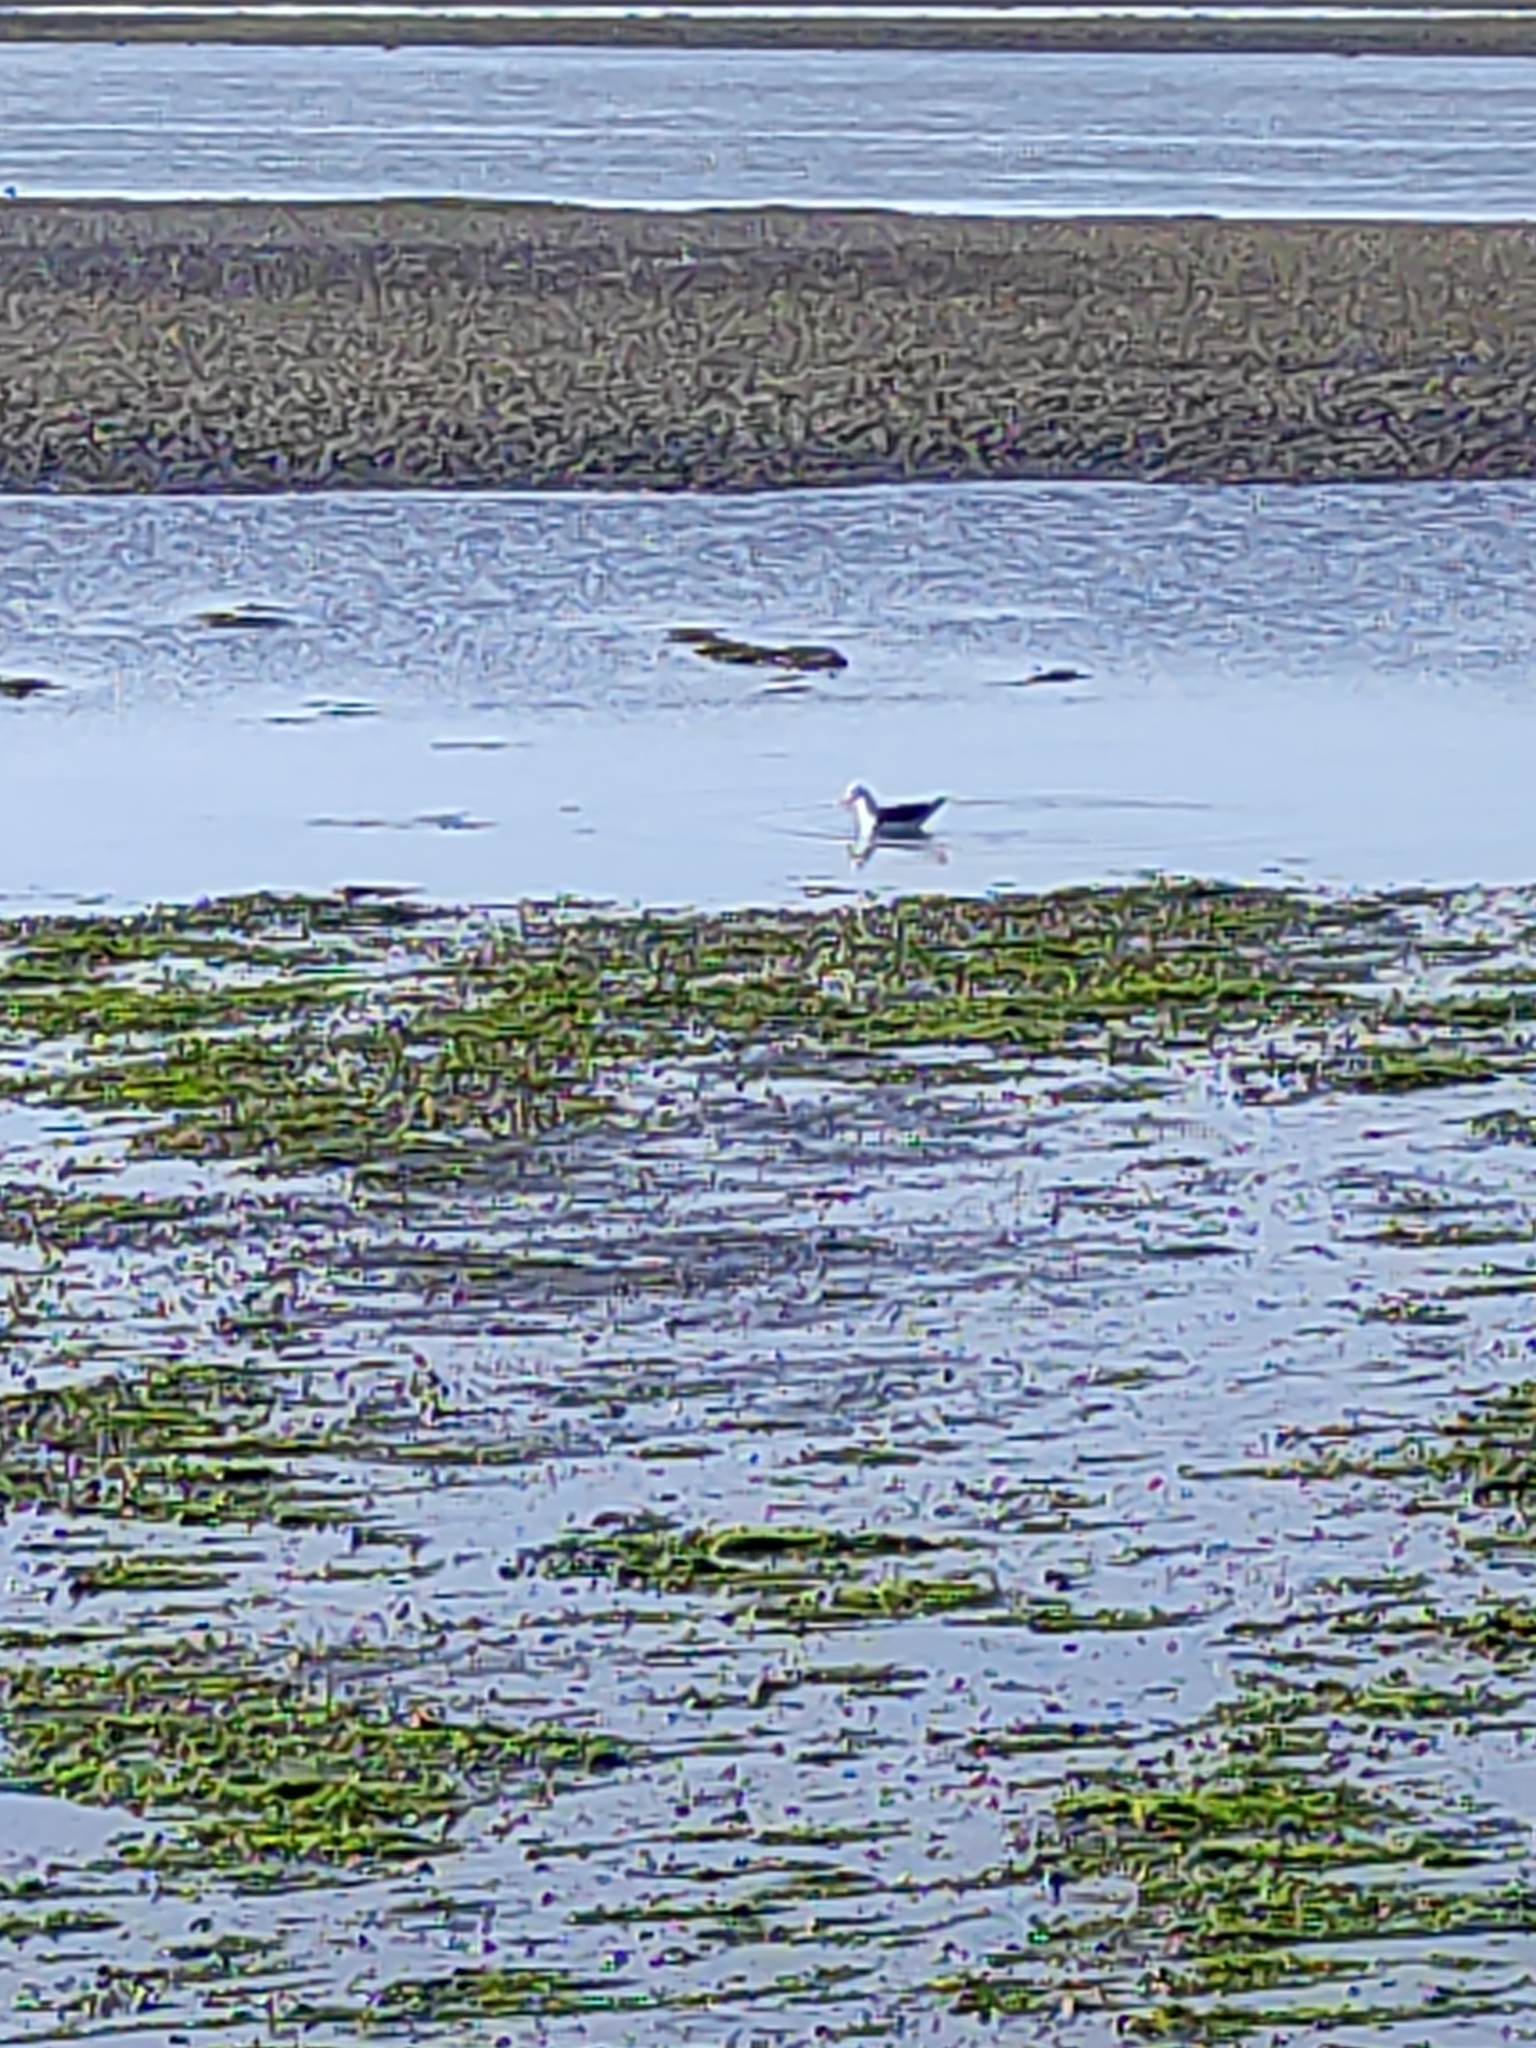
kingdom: Animalia
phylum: Chordata
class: Aves
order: Charadriiformes
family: Laridae
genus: Larus
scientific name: Larus dominicanus
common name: Kelp gull
